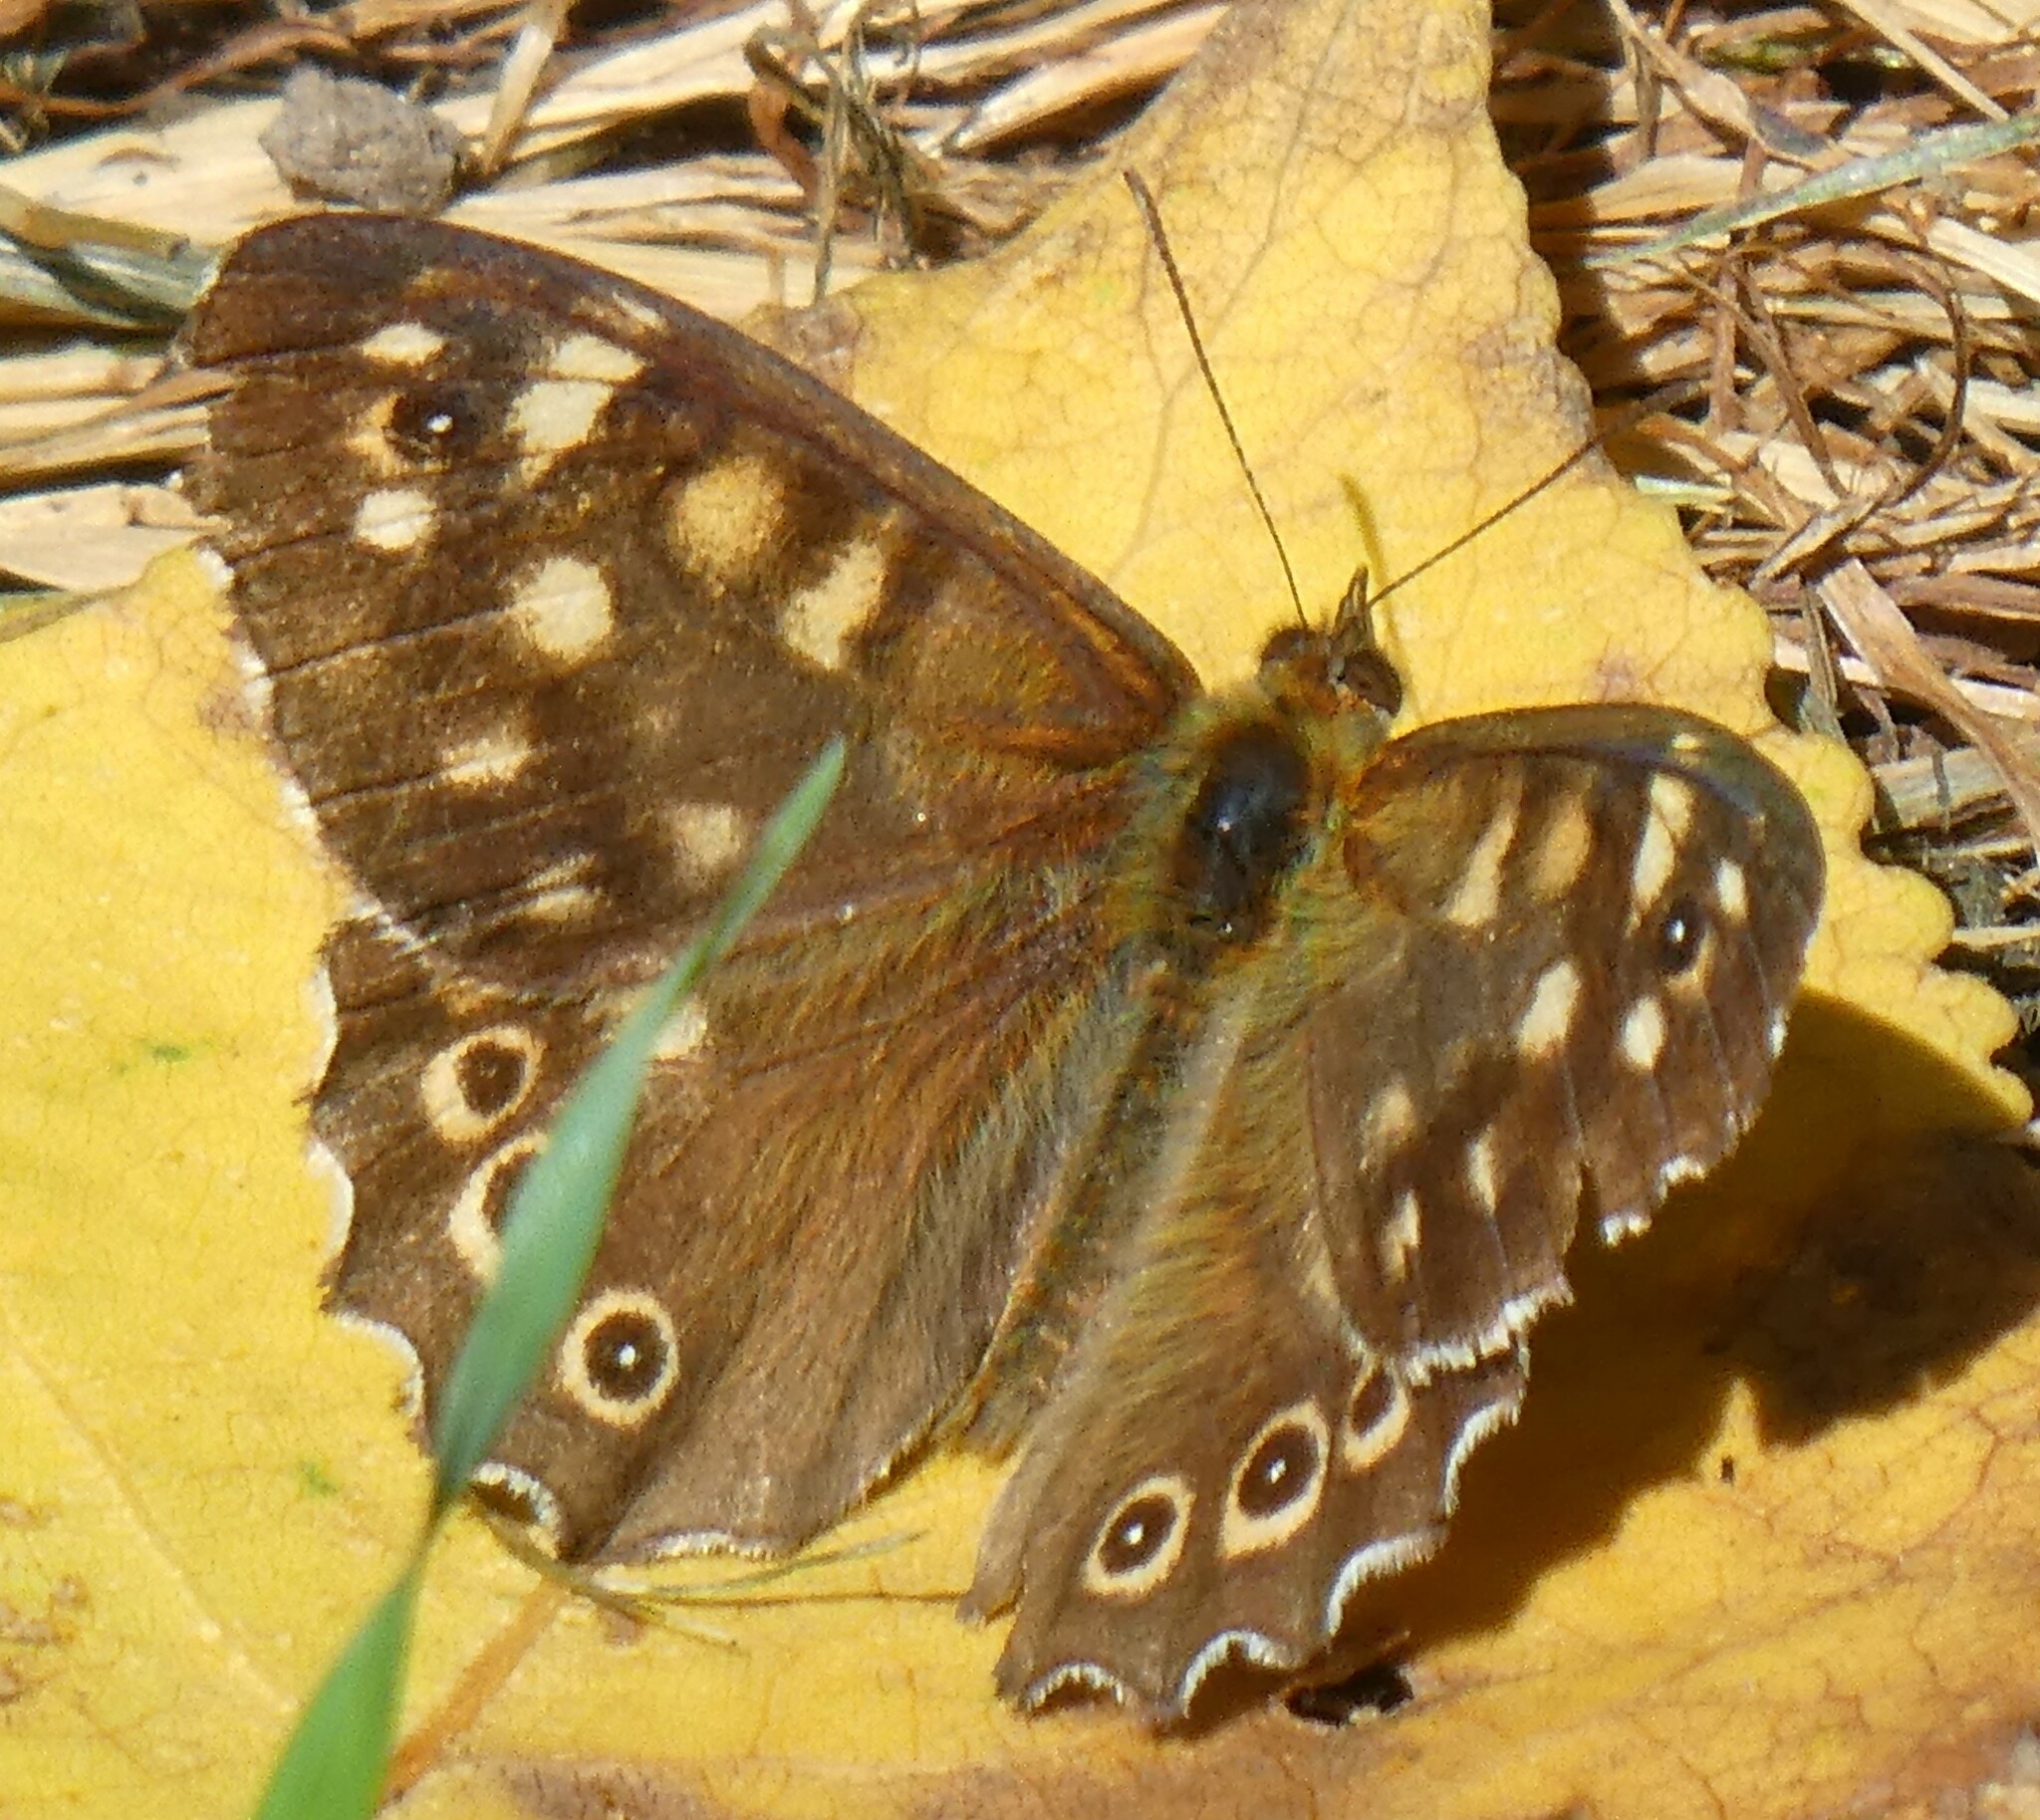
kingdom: Animalia
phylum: Arthropoda
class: Insecta
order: Lepidoptera
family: Nymphalidae
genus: Pararge
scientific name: Pararge aegeria
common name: Speckled wood
